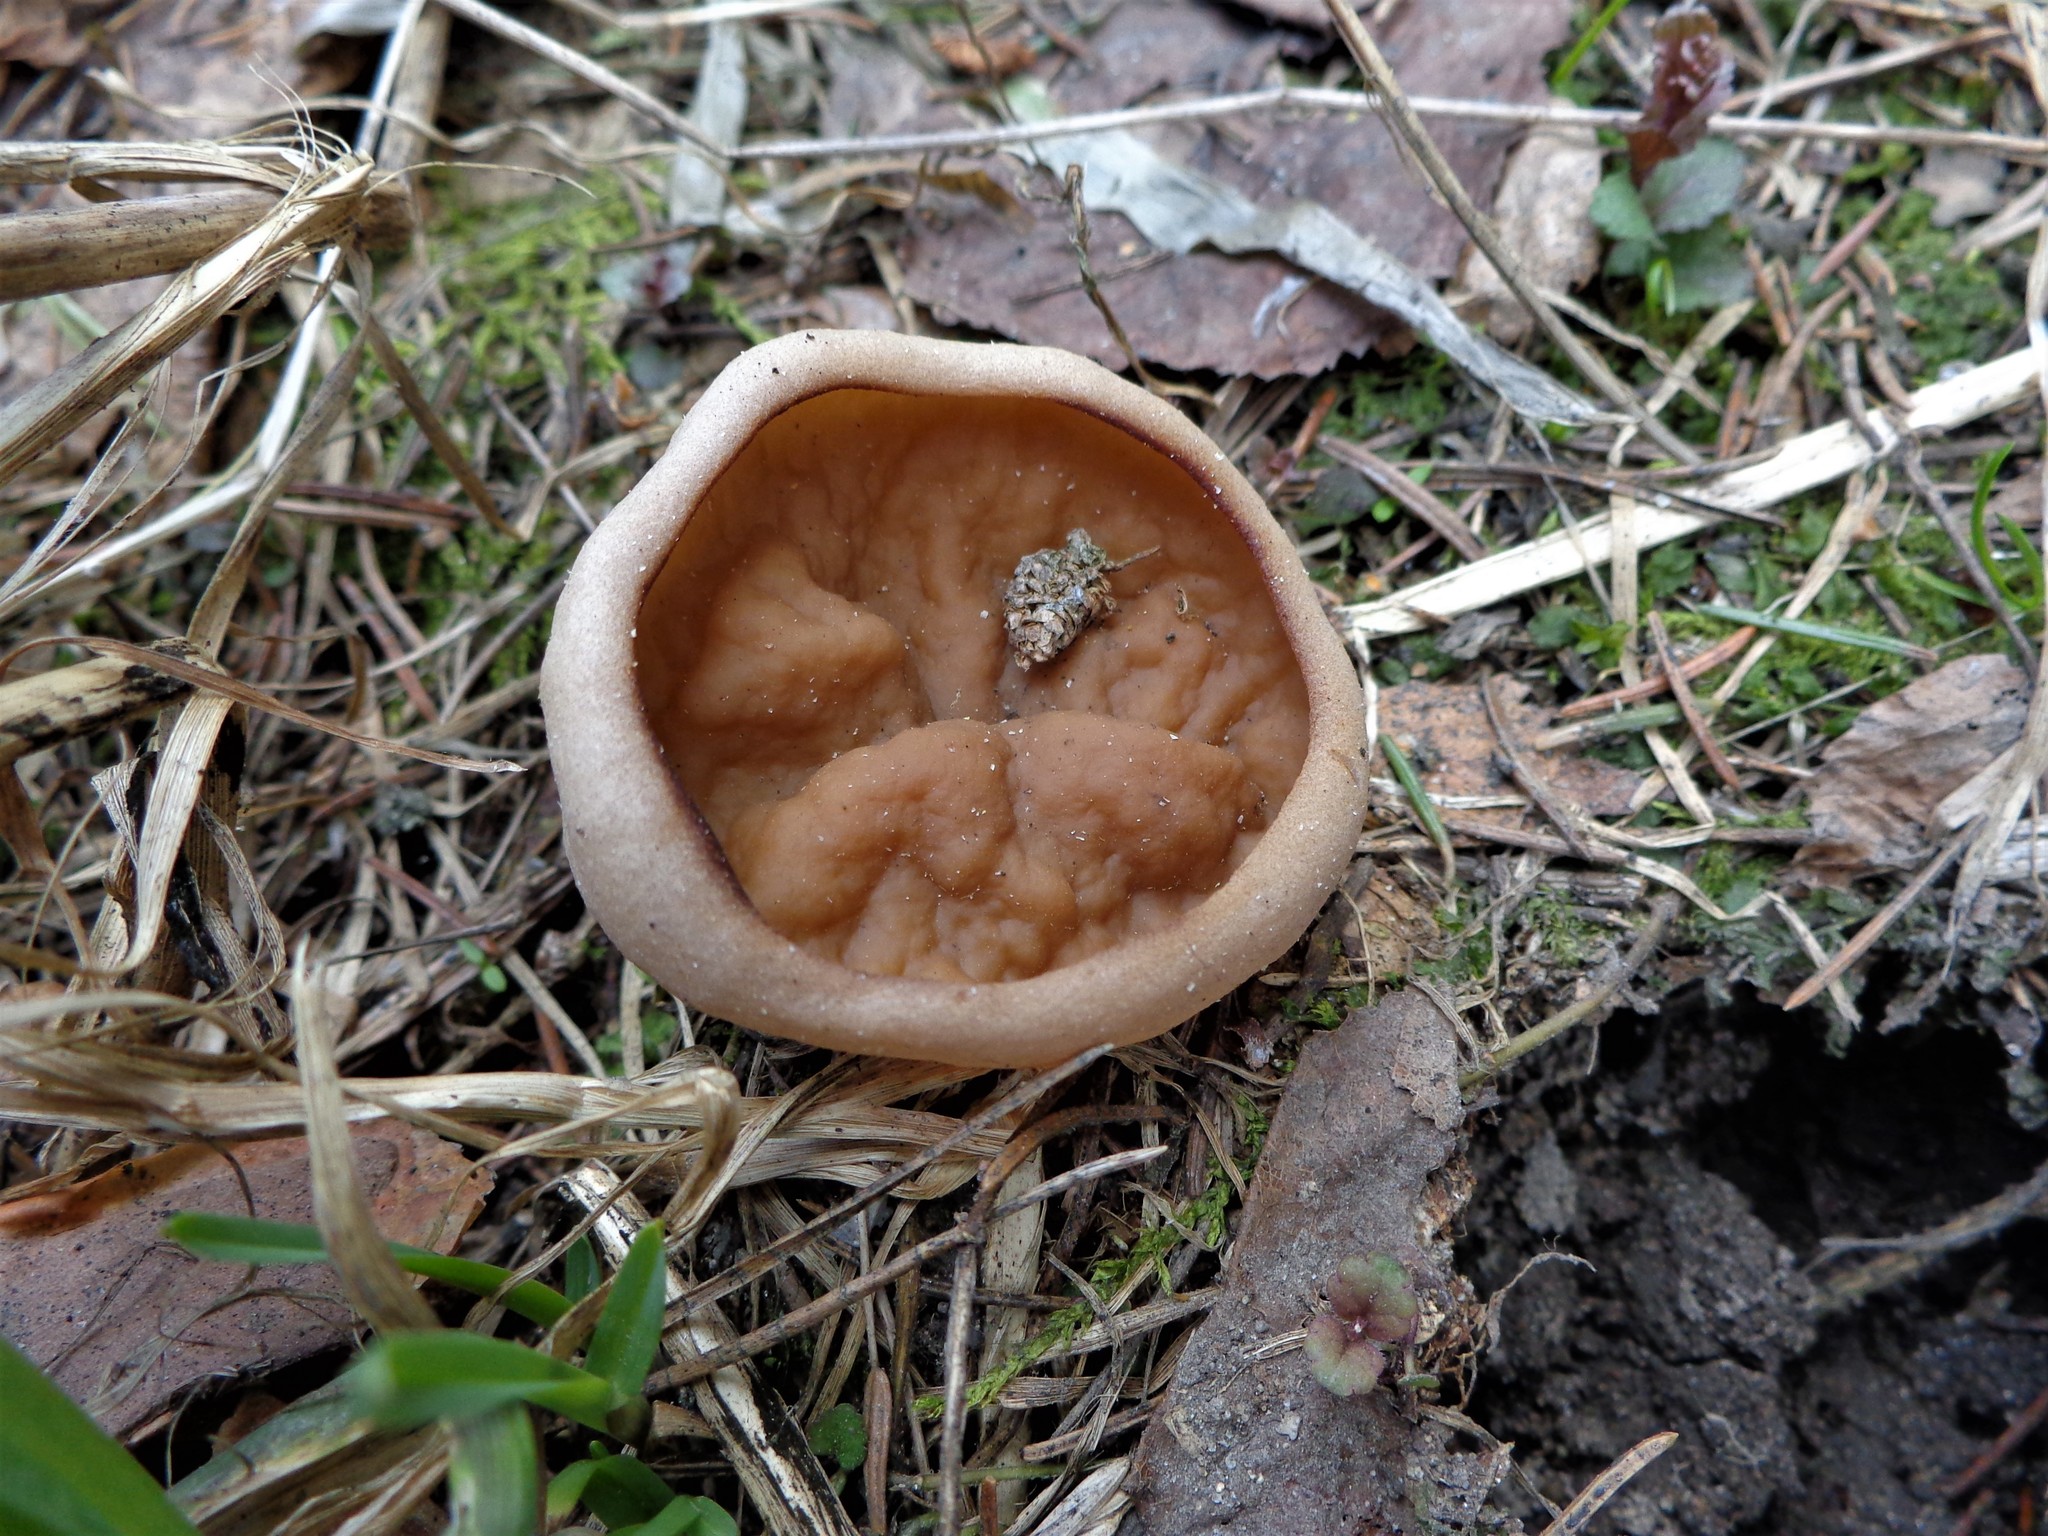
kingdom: Fungi
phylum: Ascomycota
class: Pezizomycetes
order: Pezizales
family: Discinaceae
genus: Discina
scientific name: Discina ancilis
